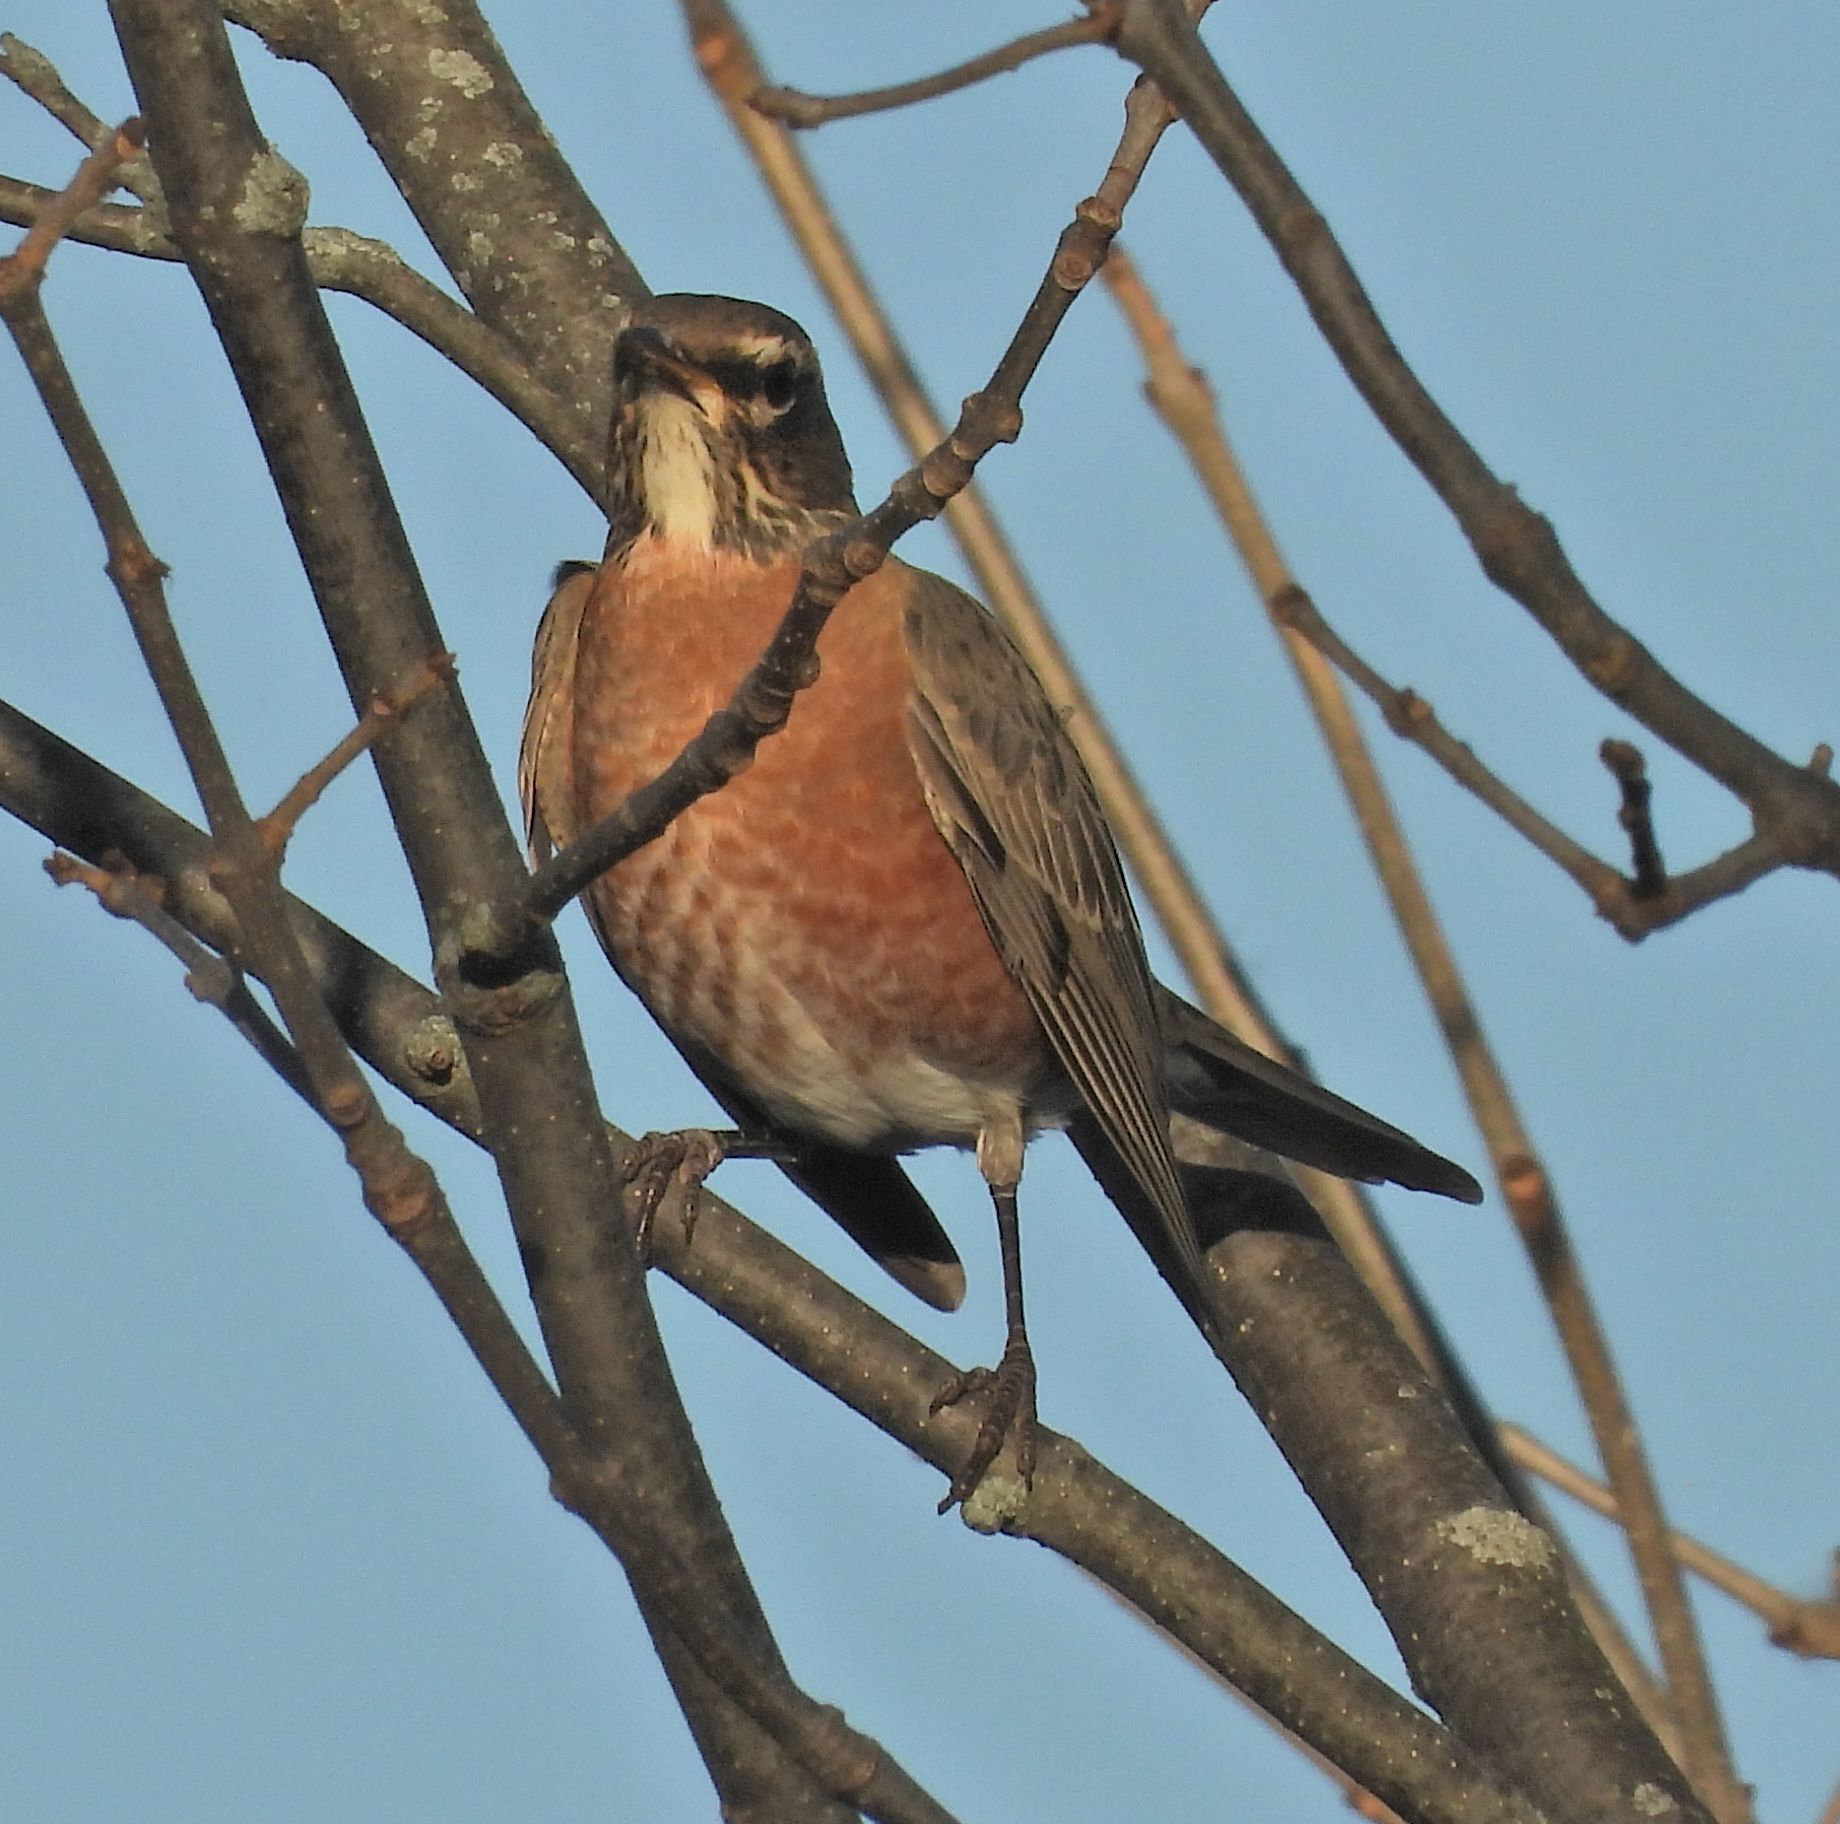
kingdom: Animalia
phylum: Chordata
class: Aves
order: Passeriformes
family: Turdidae
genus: Turdus
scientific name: Turdus migratorius
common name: American robin
